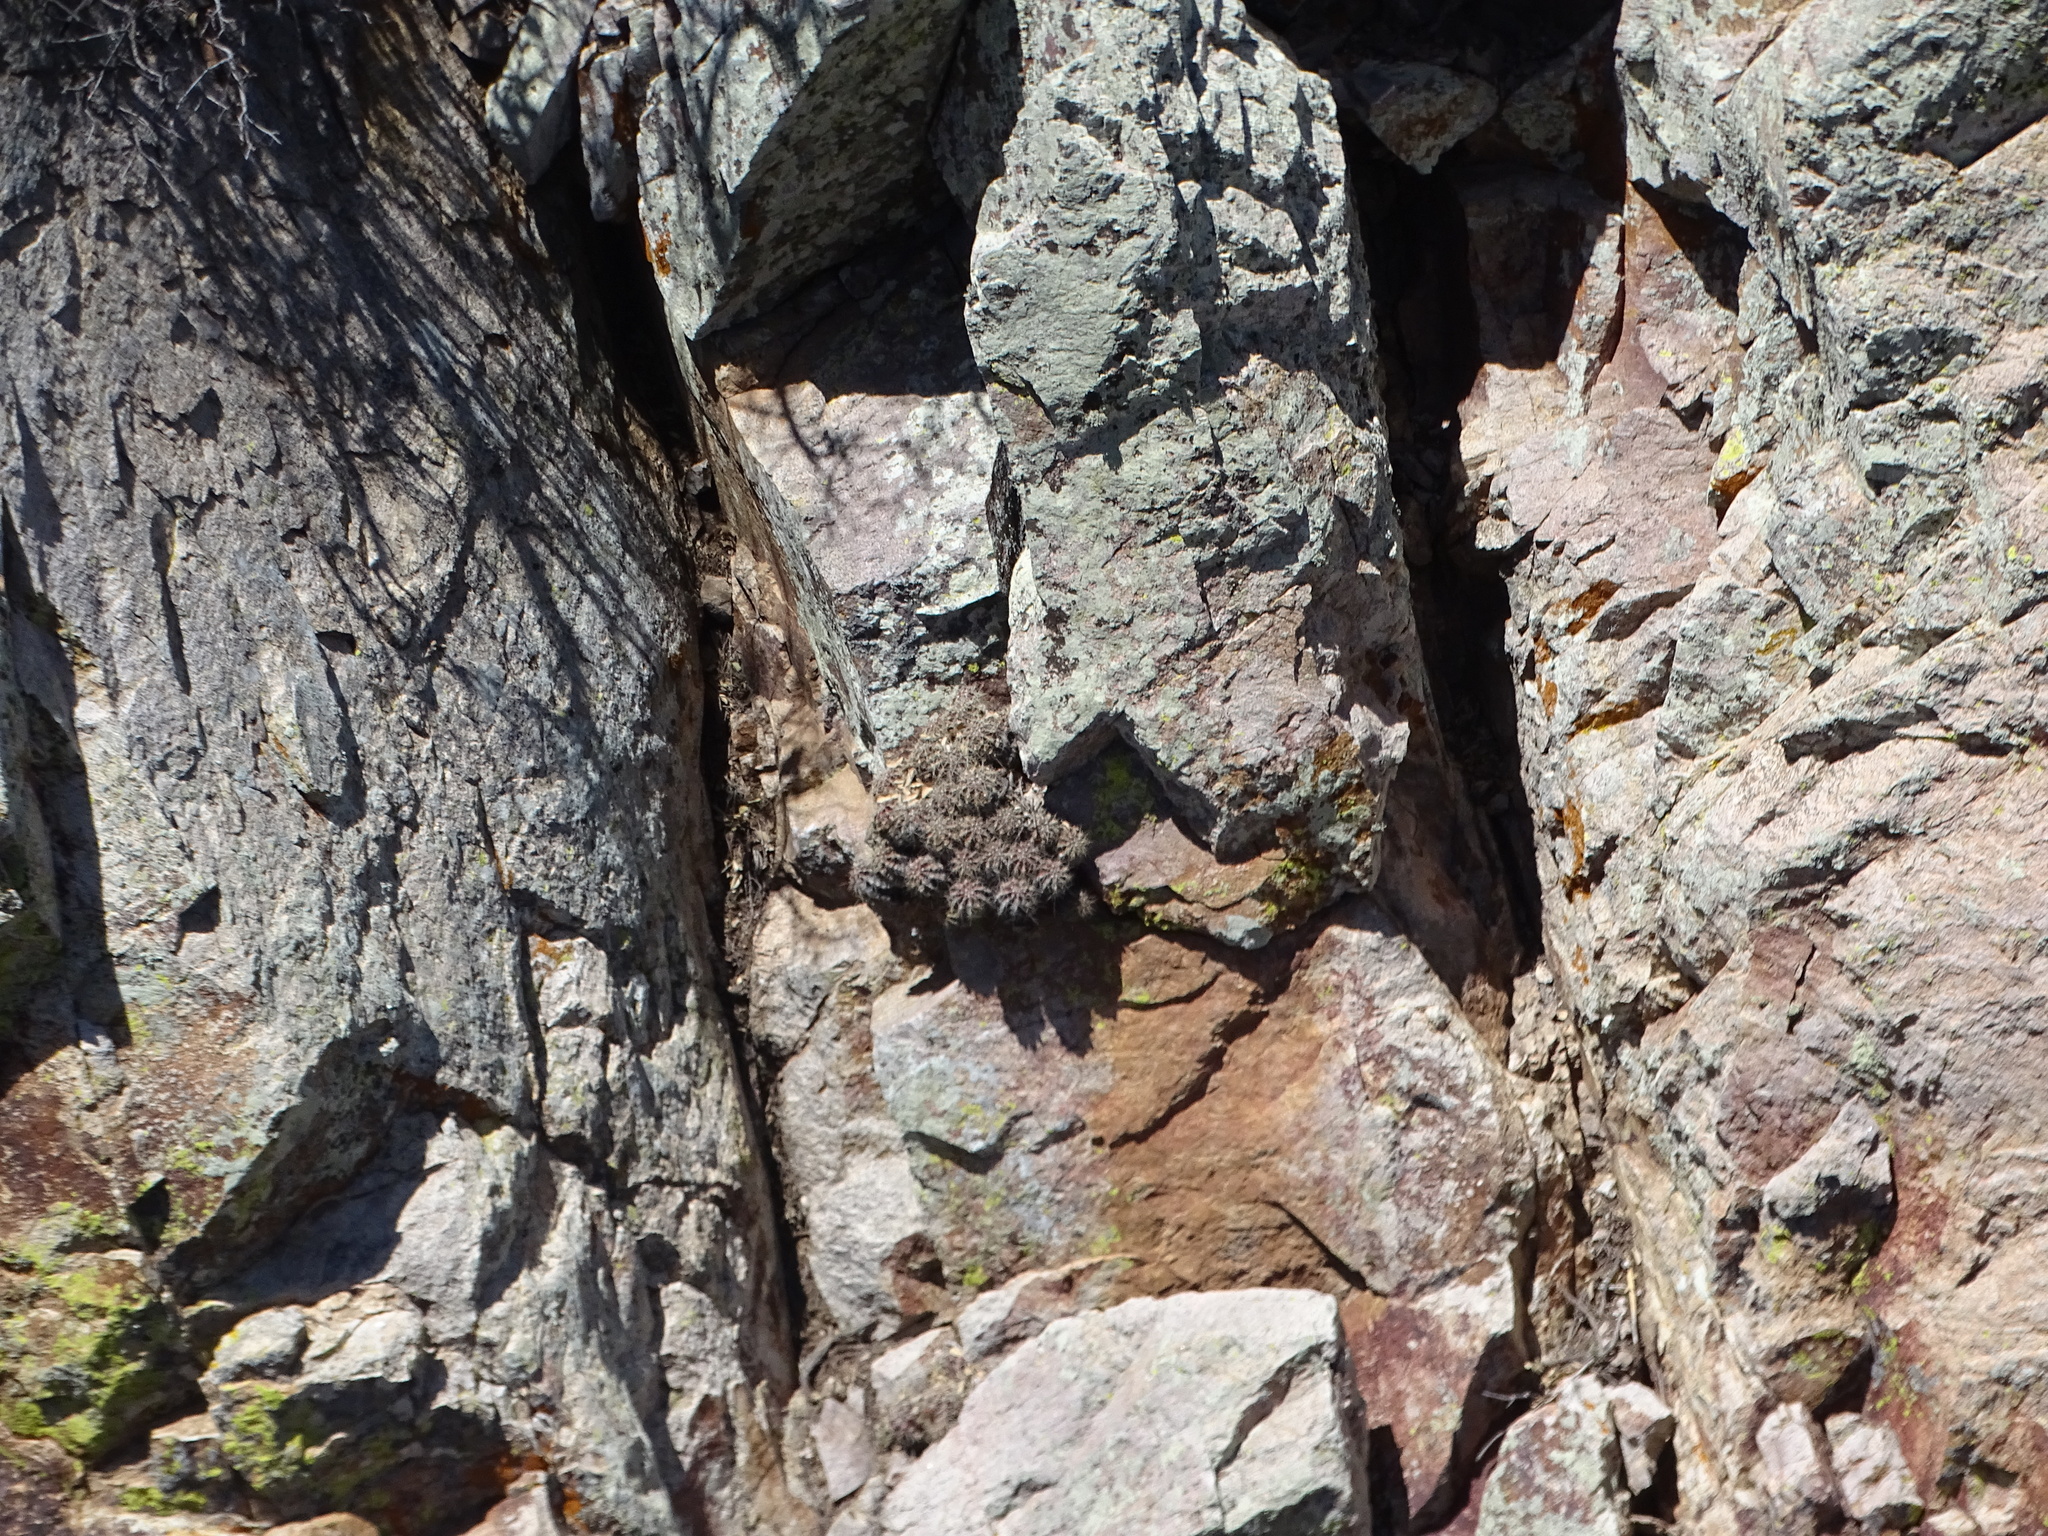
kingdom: Plantae
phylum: Tracheophyta
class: Magnoliopsida
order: Caryophyllales
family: Cactaceae
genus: Echinocereus
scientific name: Echinocereus coccineus
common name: Scarlet hedgehog cactus
